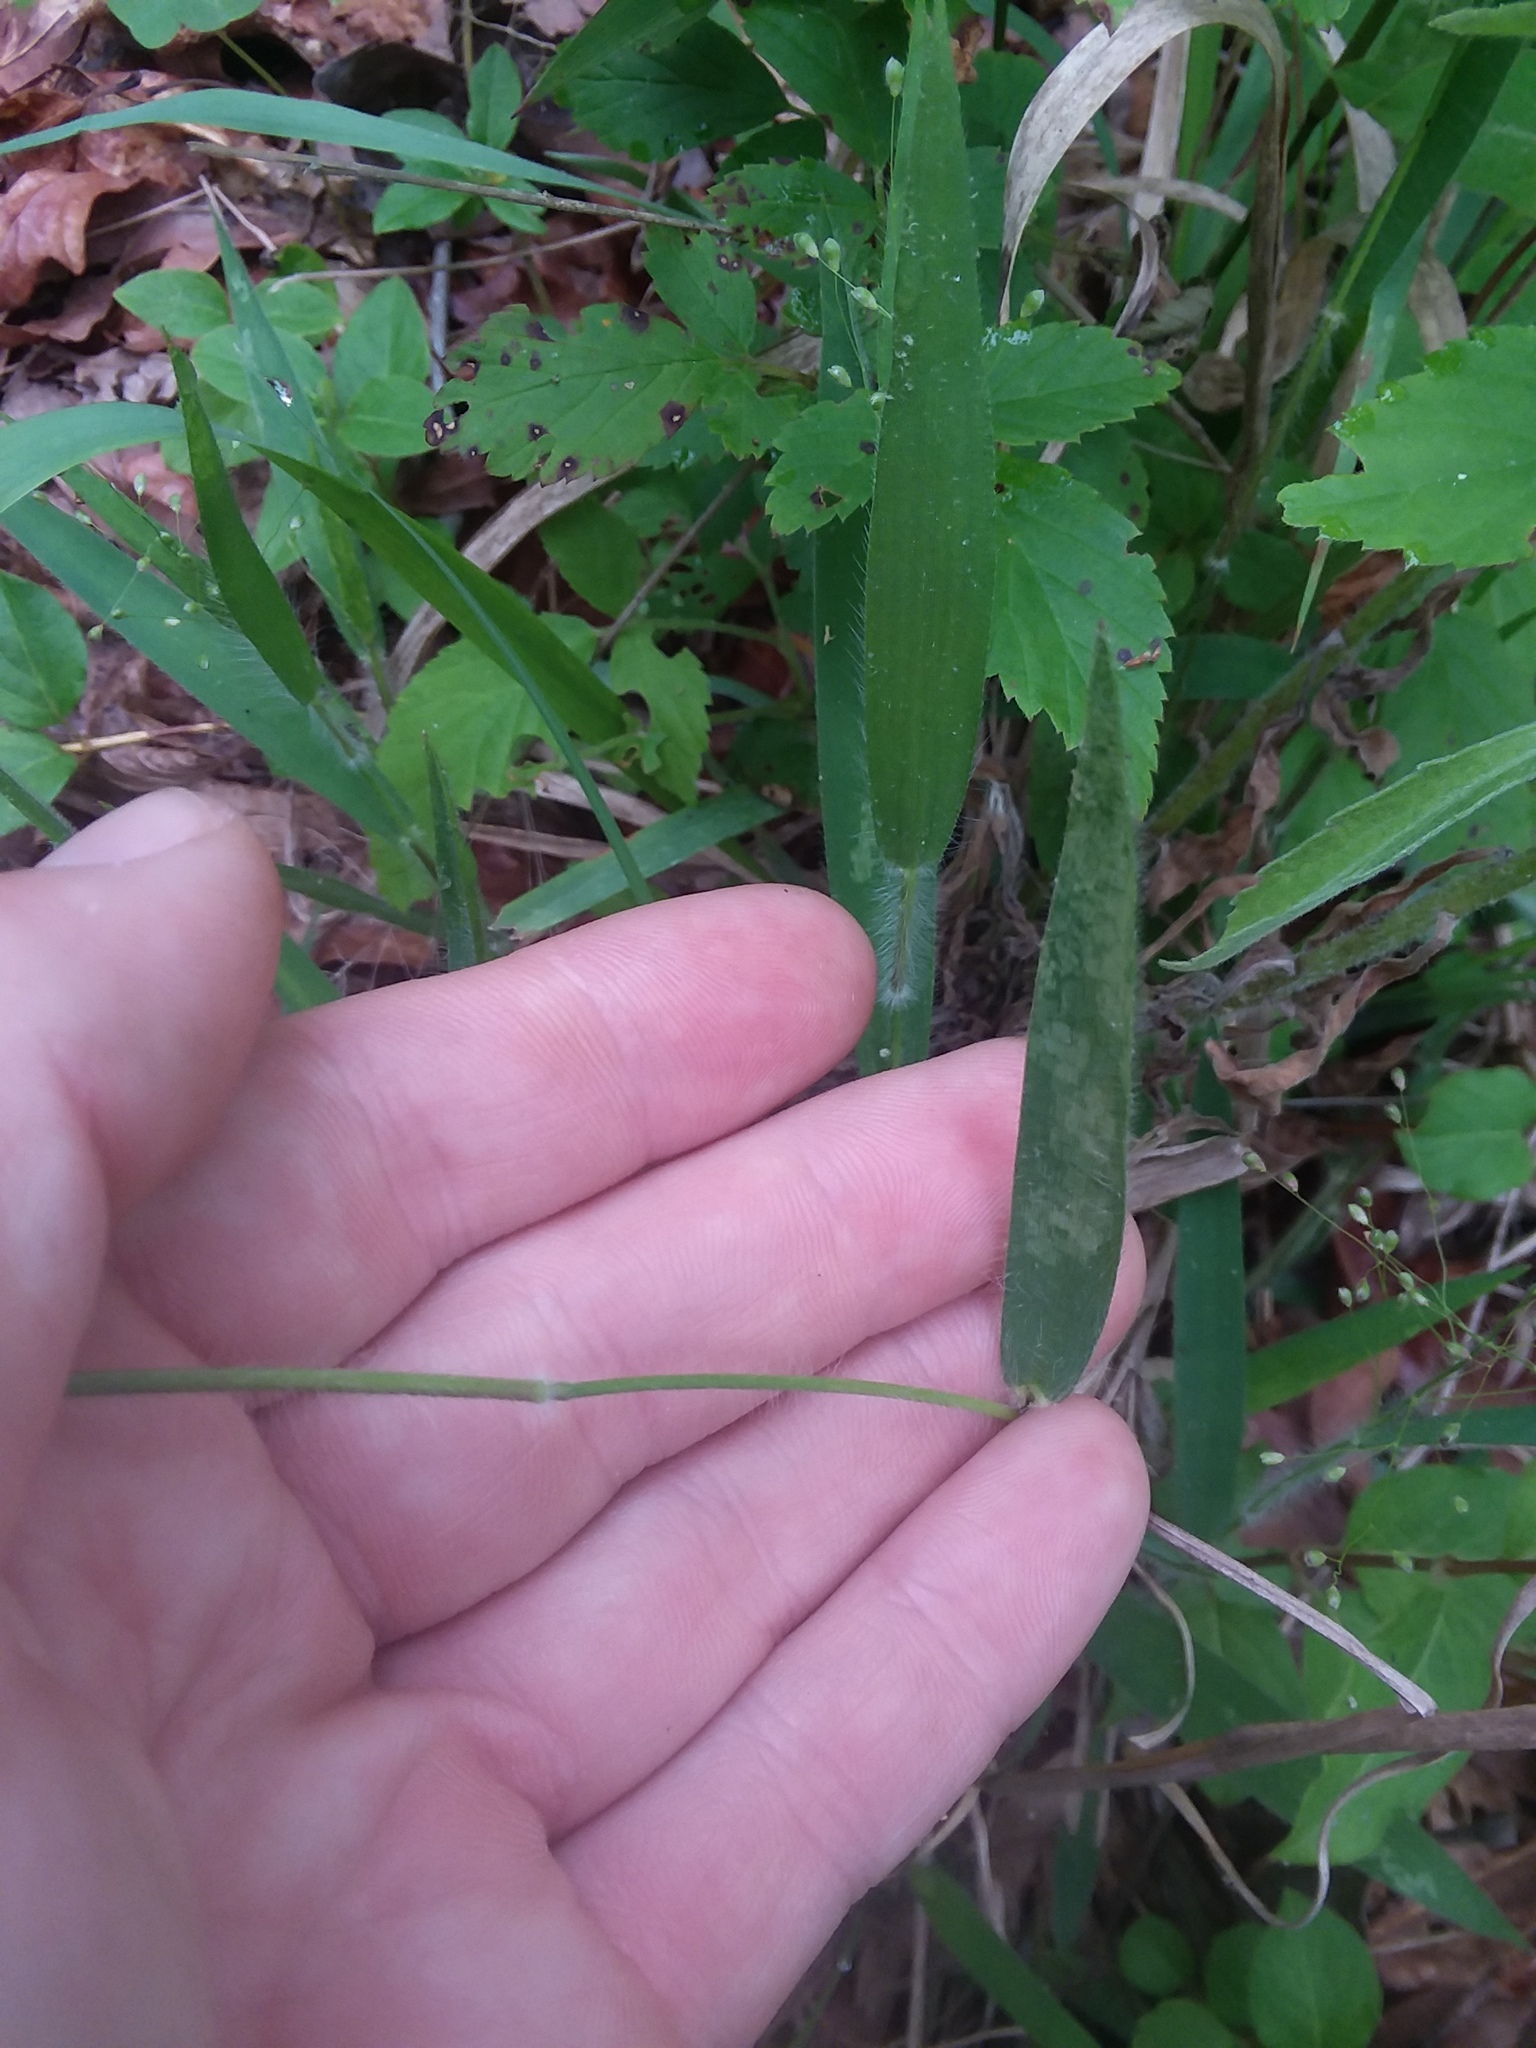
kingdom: Plantae
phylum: Tracheophyta
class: Liliopsida
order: Poales
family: Poaceae
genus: Dichanthelium
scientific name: Dichanthelium villosissimum
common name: White-haired panicgrass
